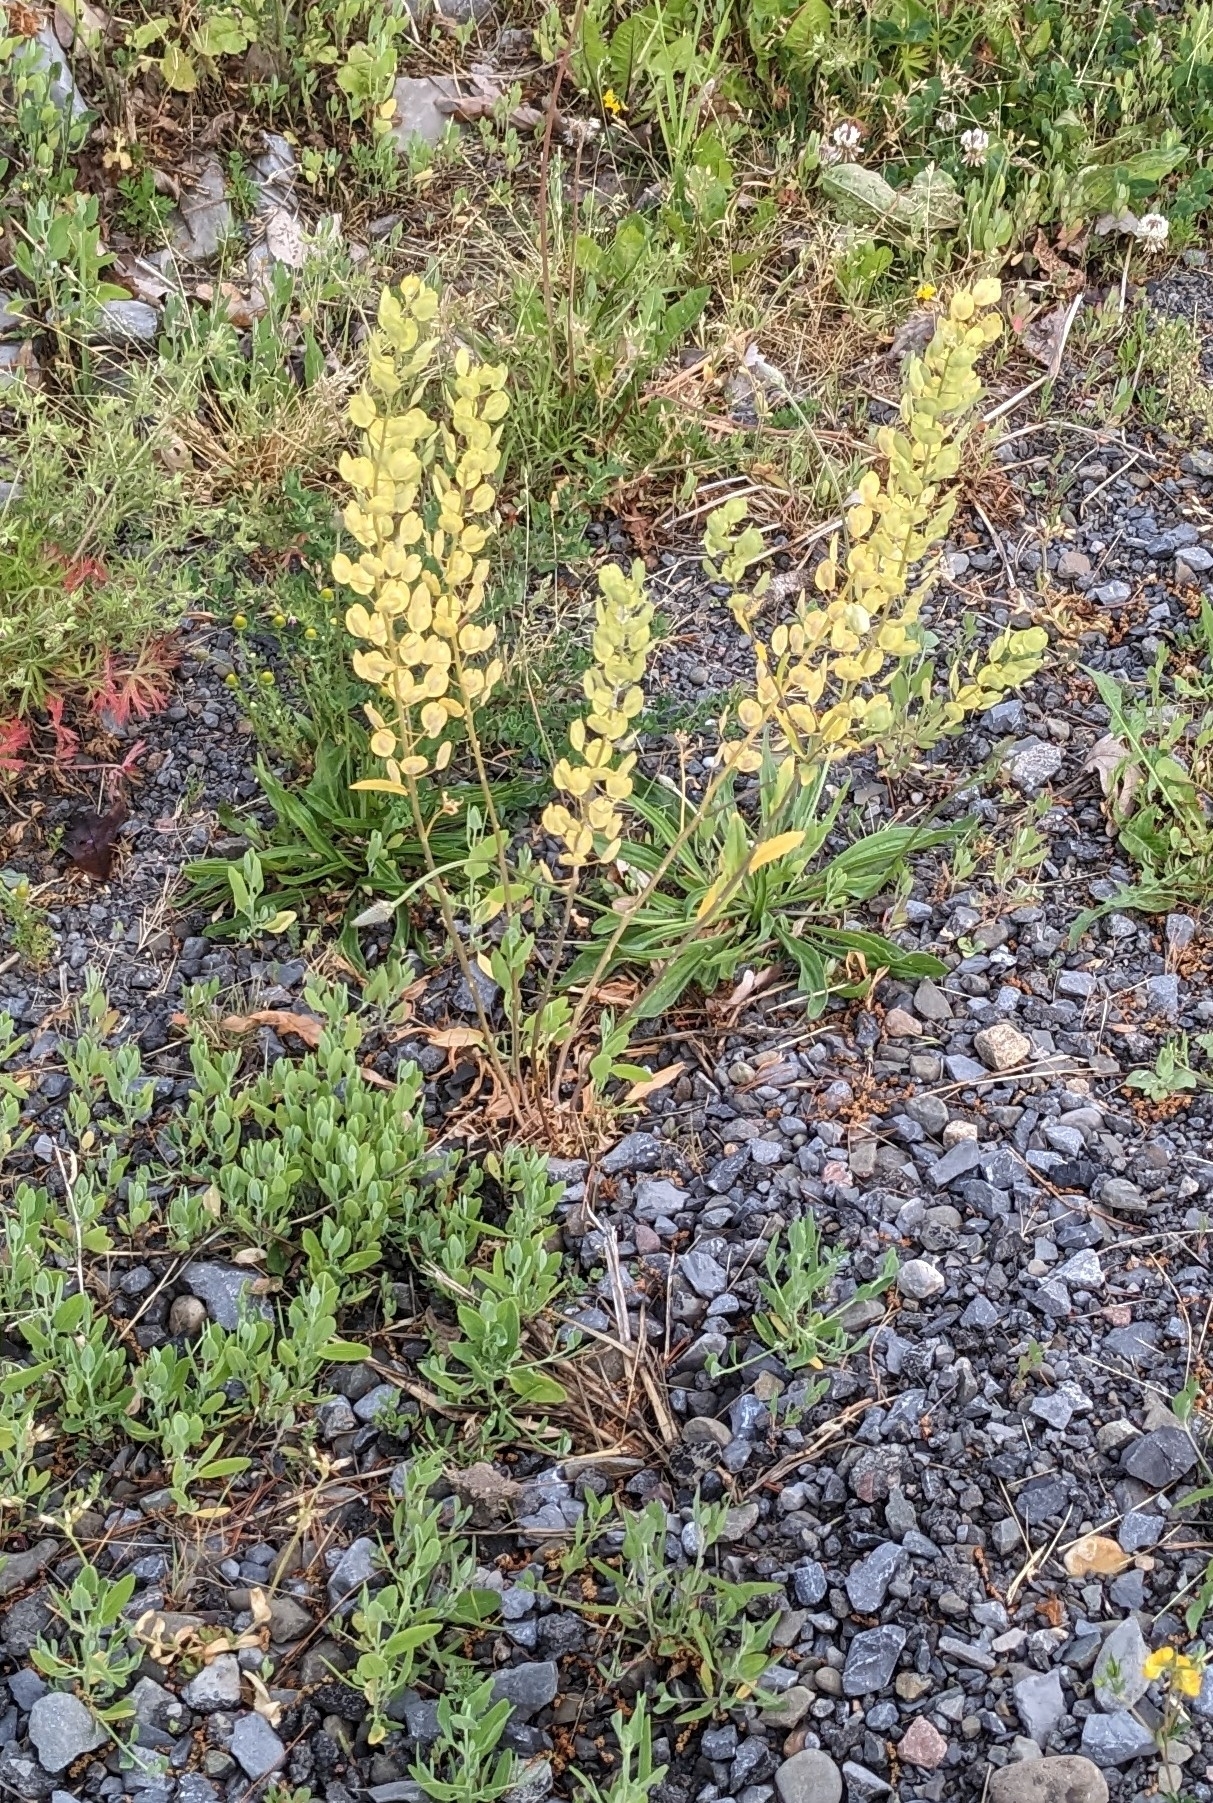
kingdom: Plantae
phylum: Tracheophyta
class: Magnoliopsida
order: Brassicales
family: Brassicaceae
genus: Thlaspi
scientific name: Thlaspi arvense
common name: Field pennycress
